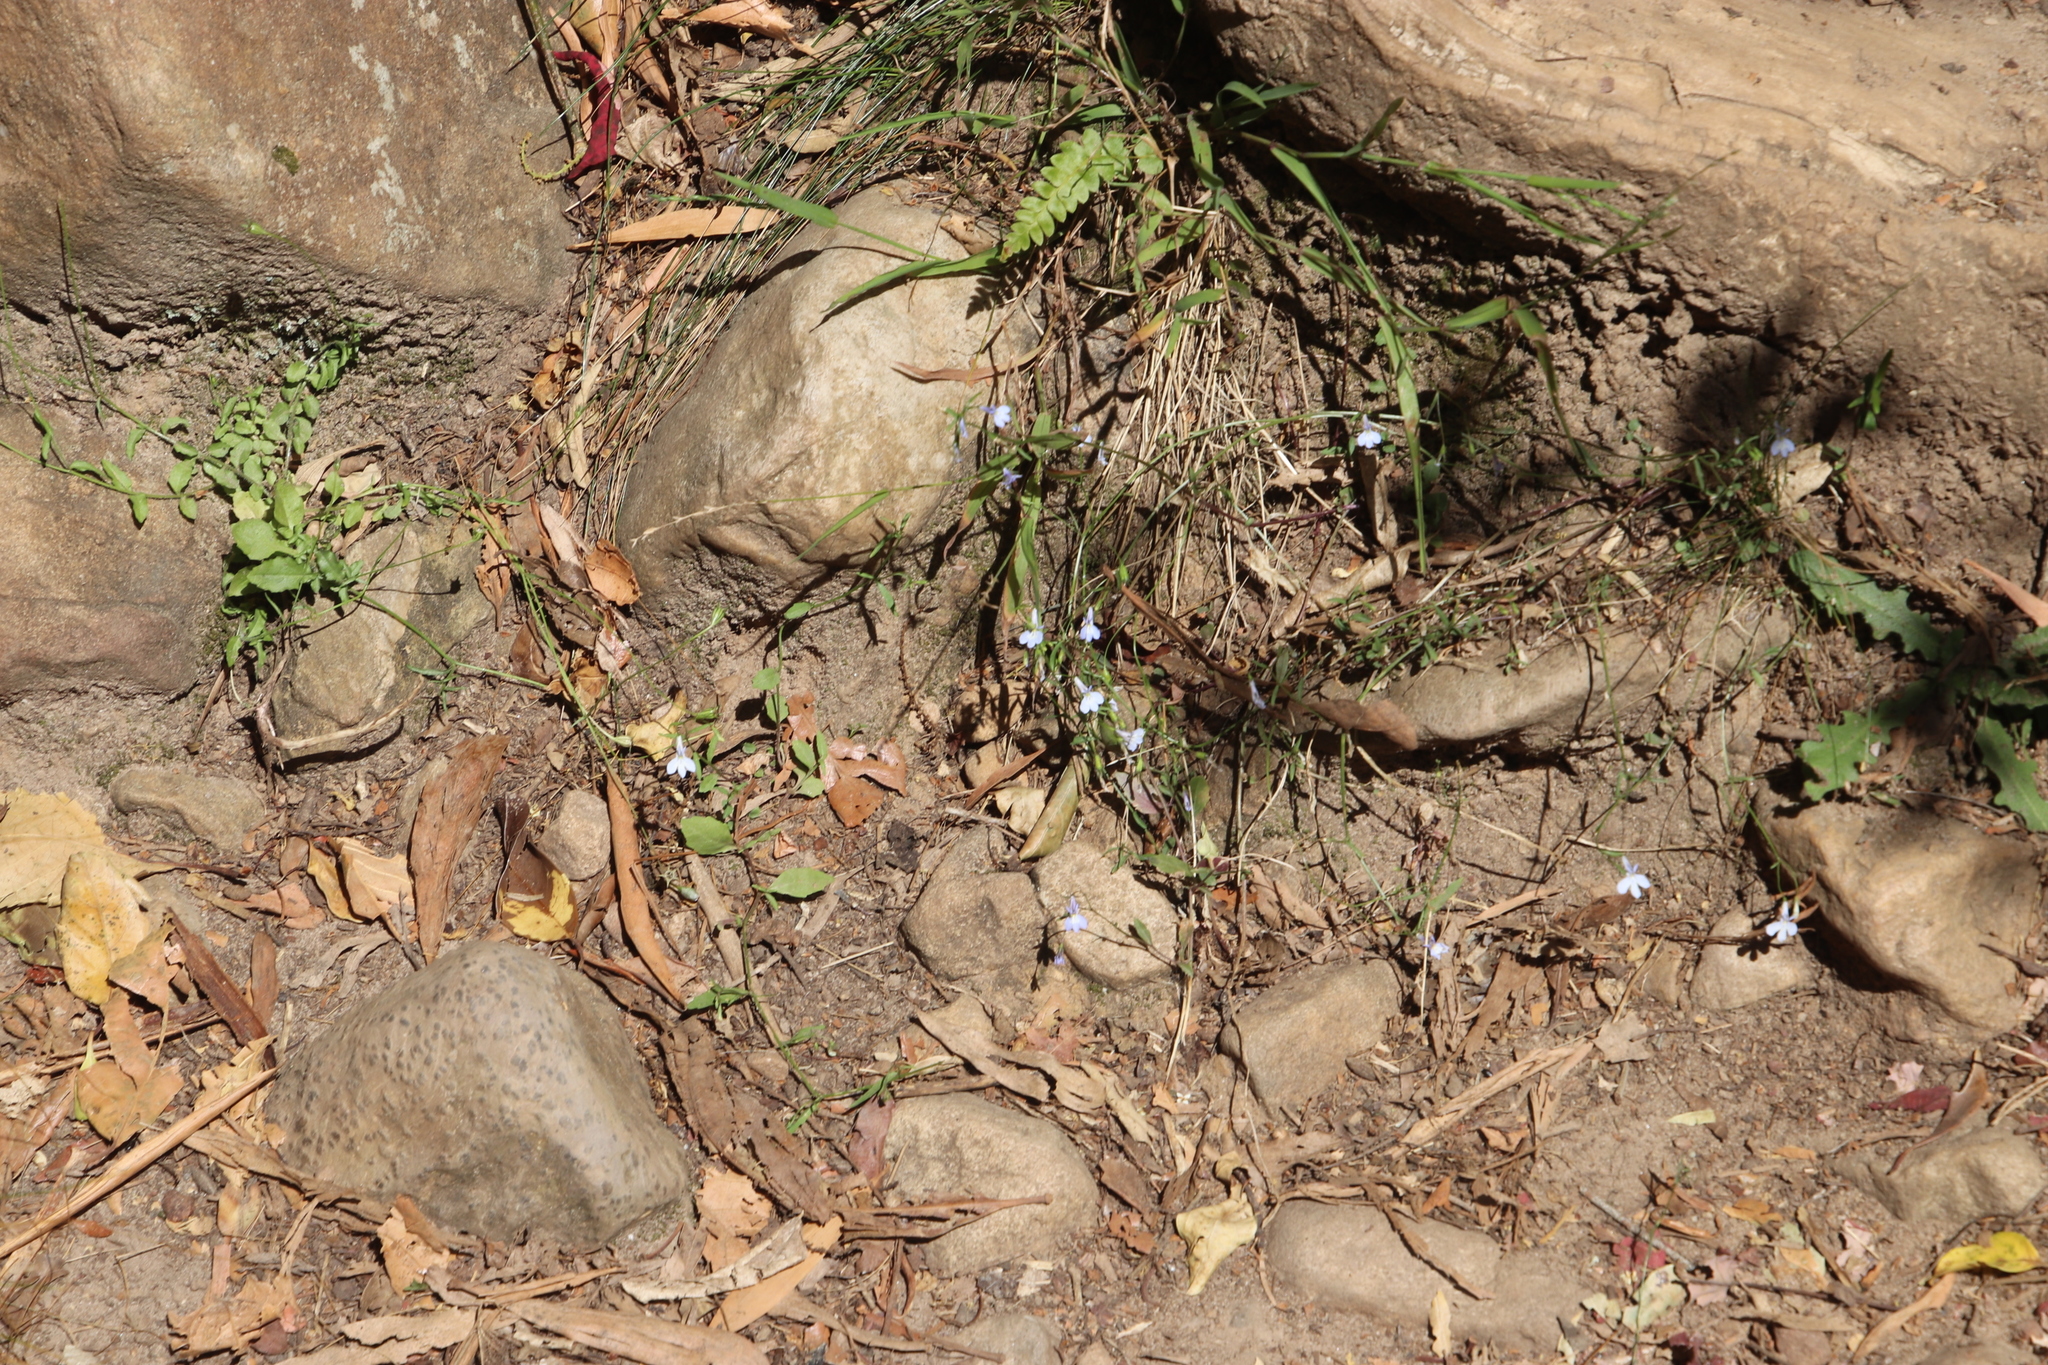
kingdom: Plantae
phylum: Tracheophyta
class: Magnoliopsida
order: Asterales
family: Campanulaceae
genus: Lobelia
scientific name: Lobelia erinus
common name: Edging lobelia
